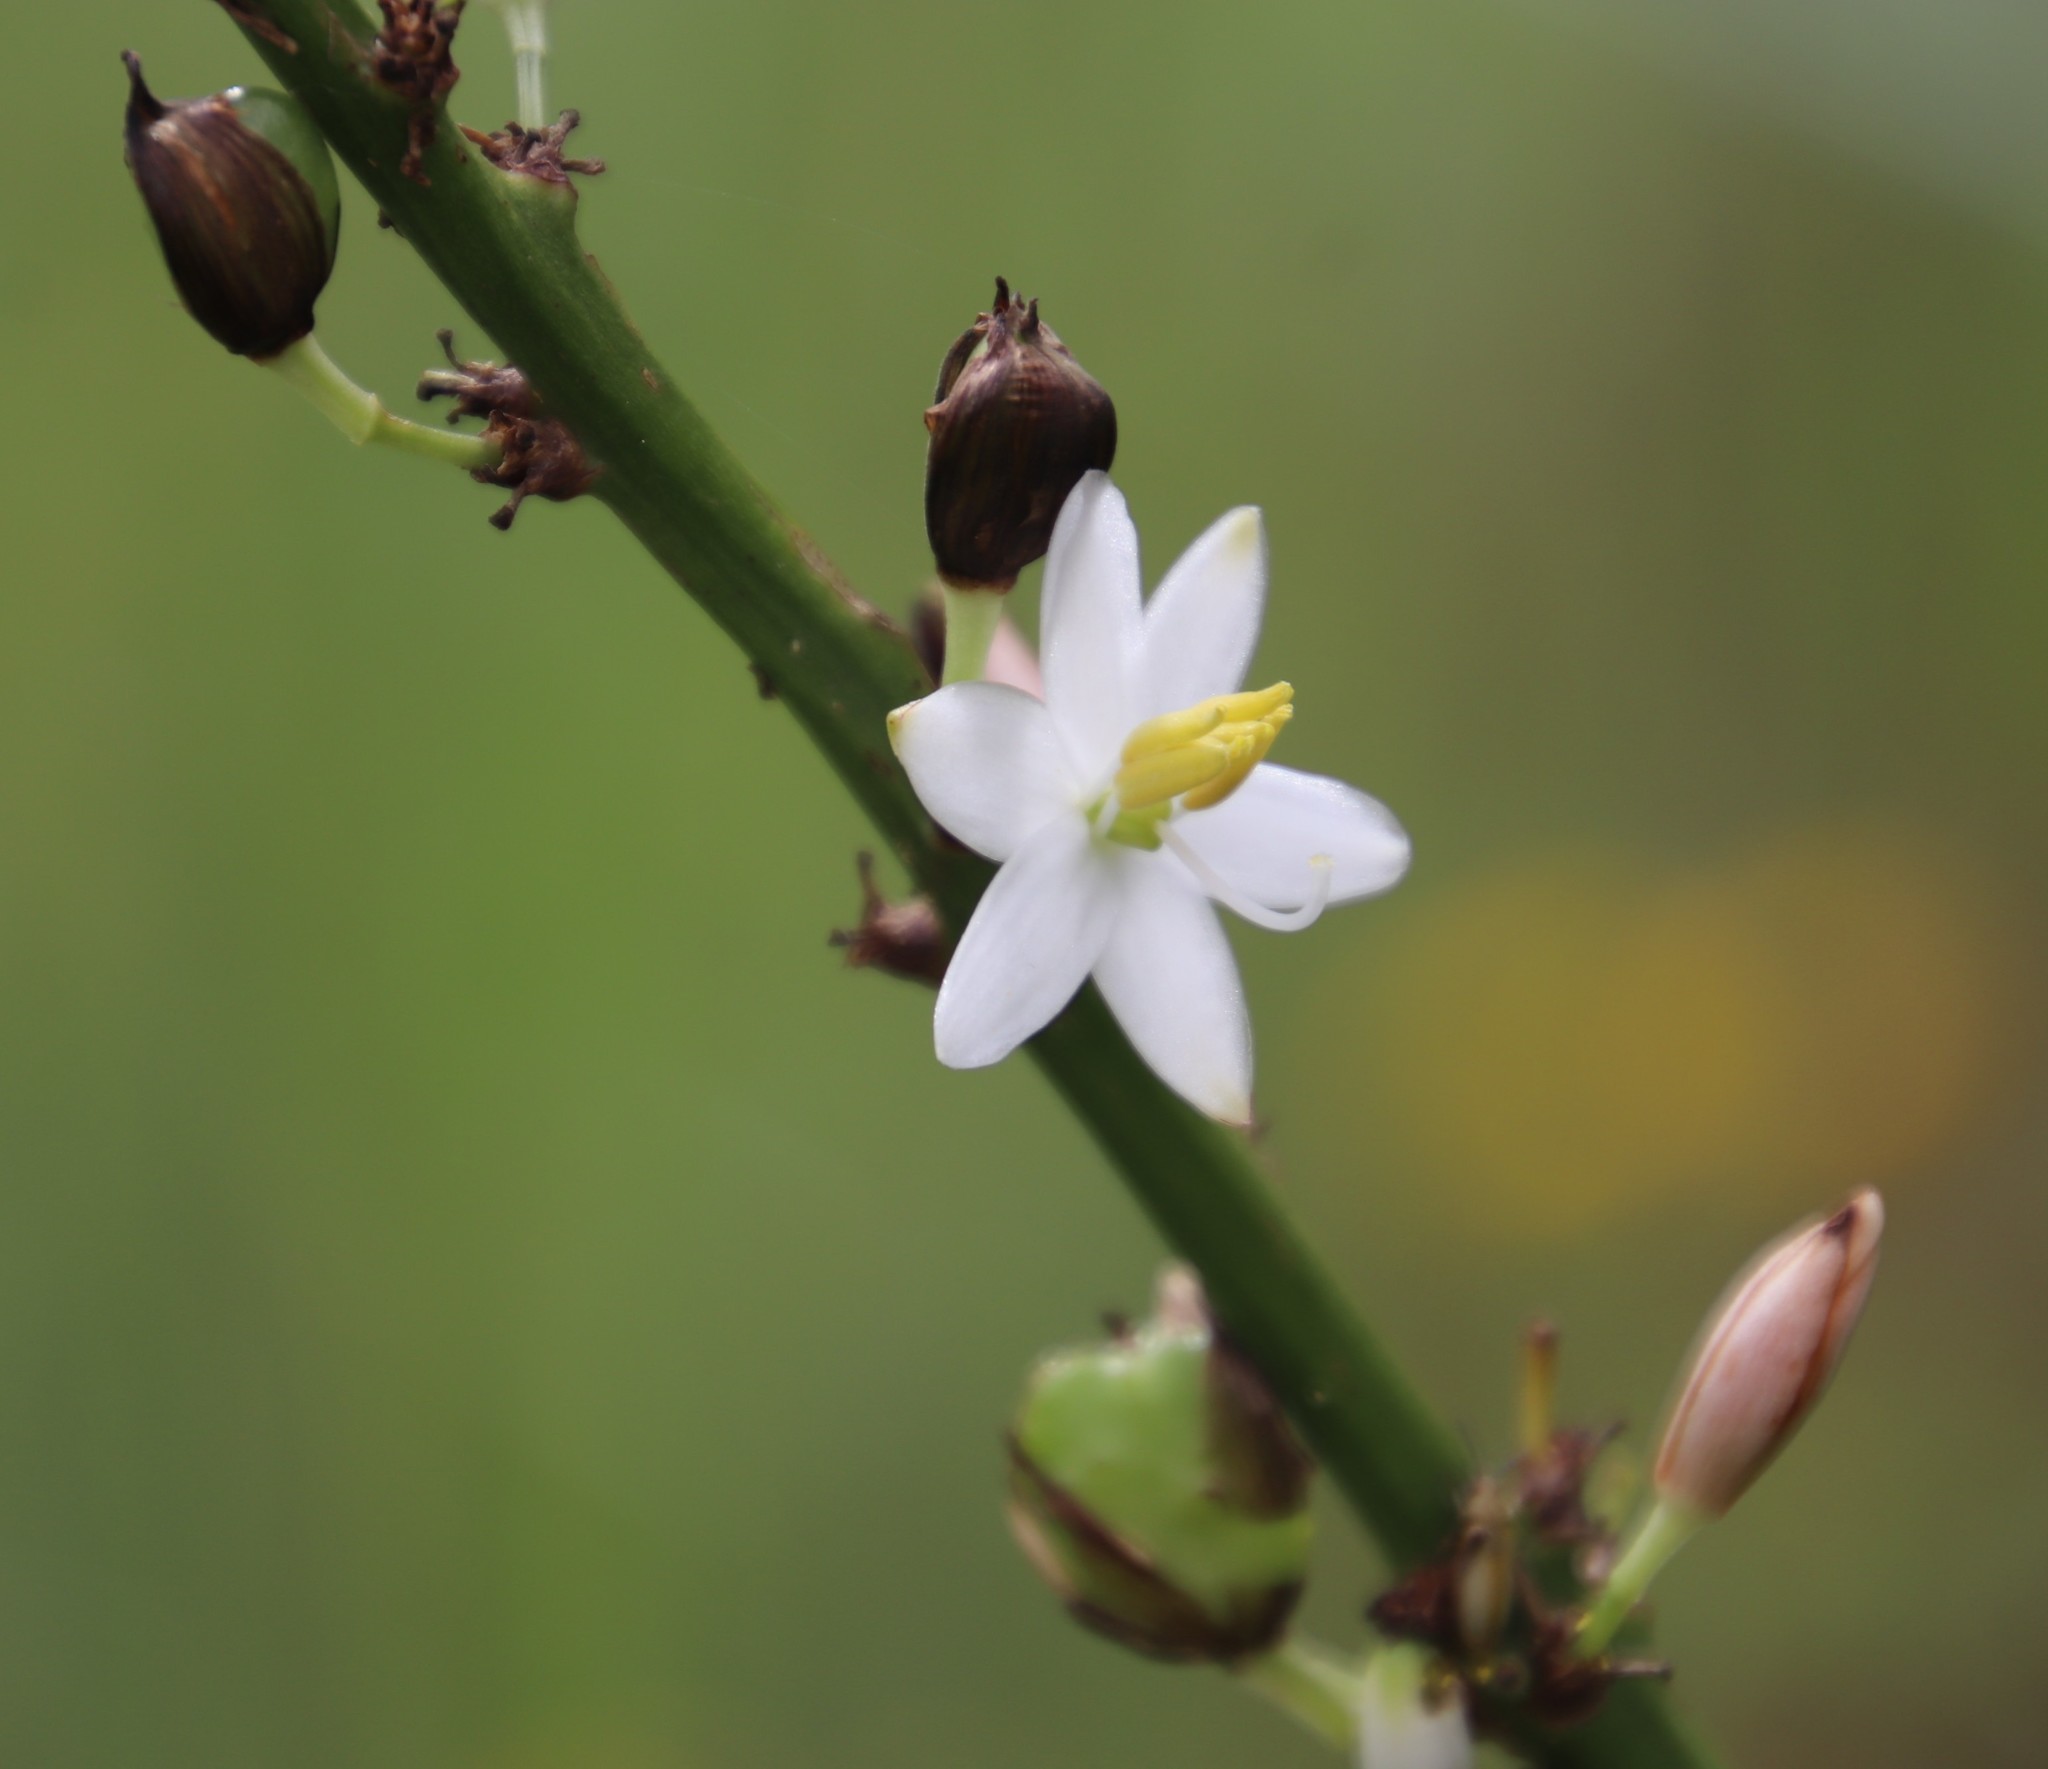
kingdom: Plantae
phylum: Tracheophyta
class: Liliopsida
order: Asparagales
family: Asparagaceae
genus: Chlorophytum
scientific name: Chlorophytum krookianum
